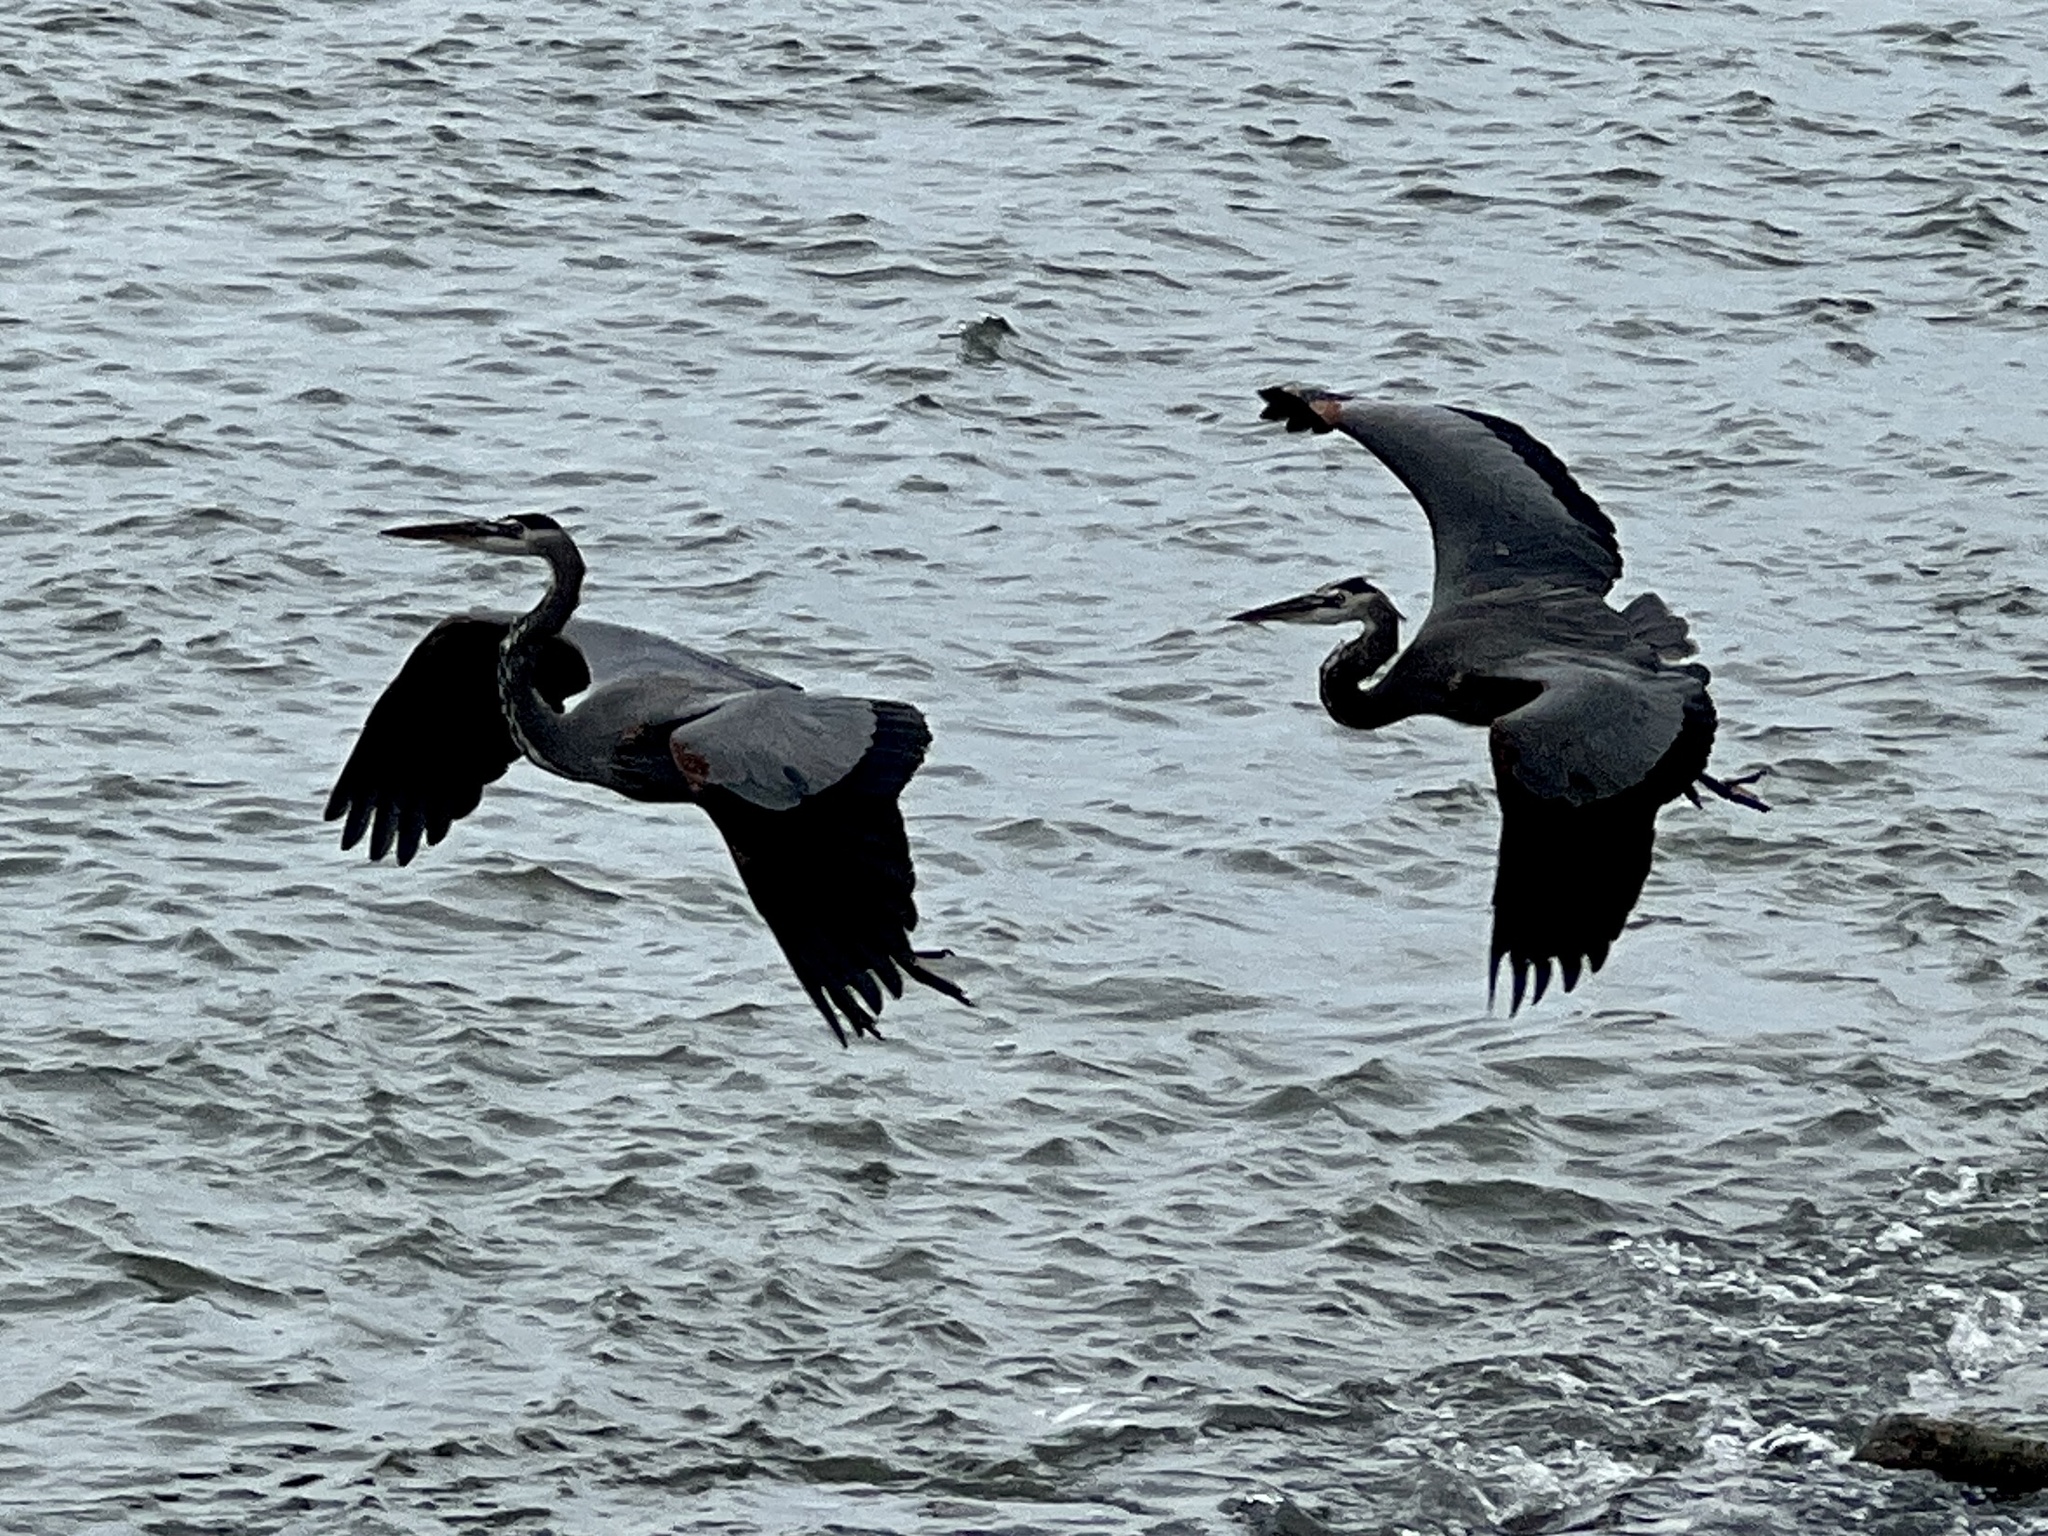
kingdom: Animalia
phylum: Chordata
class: Aves
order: Pelecaniformes
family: Ardeidae
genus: Ardea
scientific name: Ardea herodias
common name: Great blue heron
